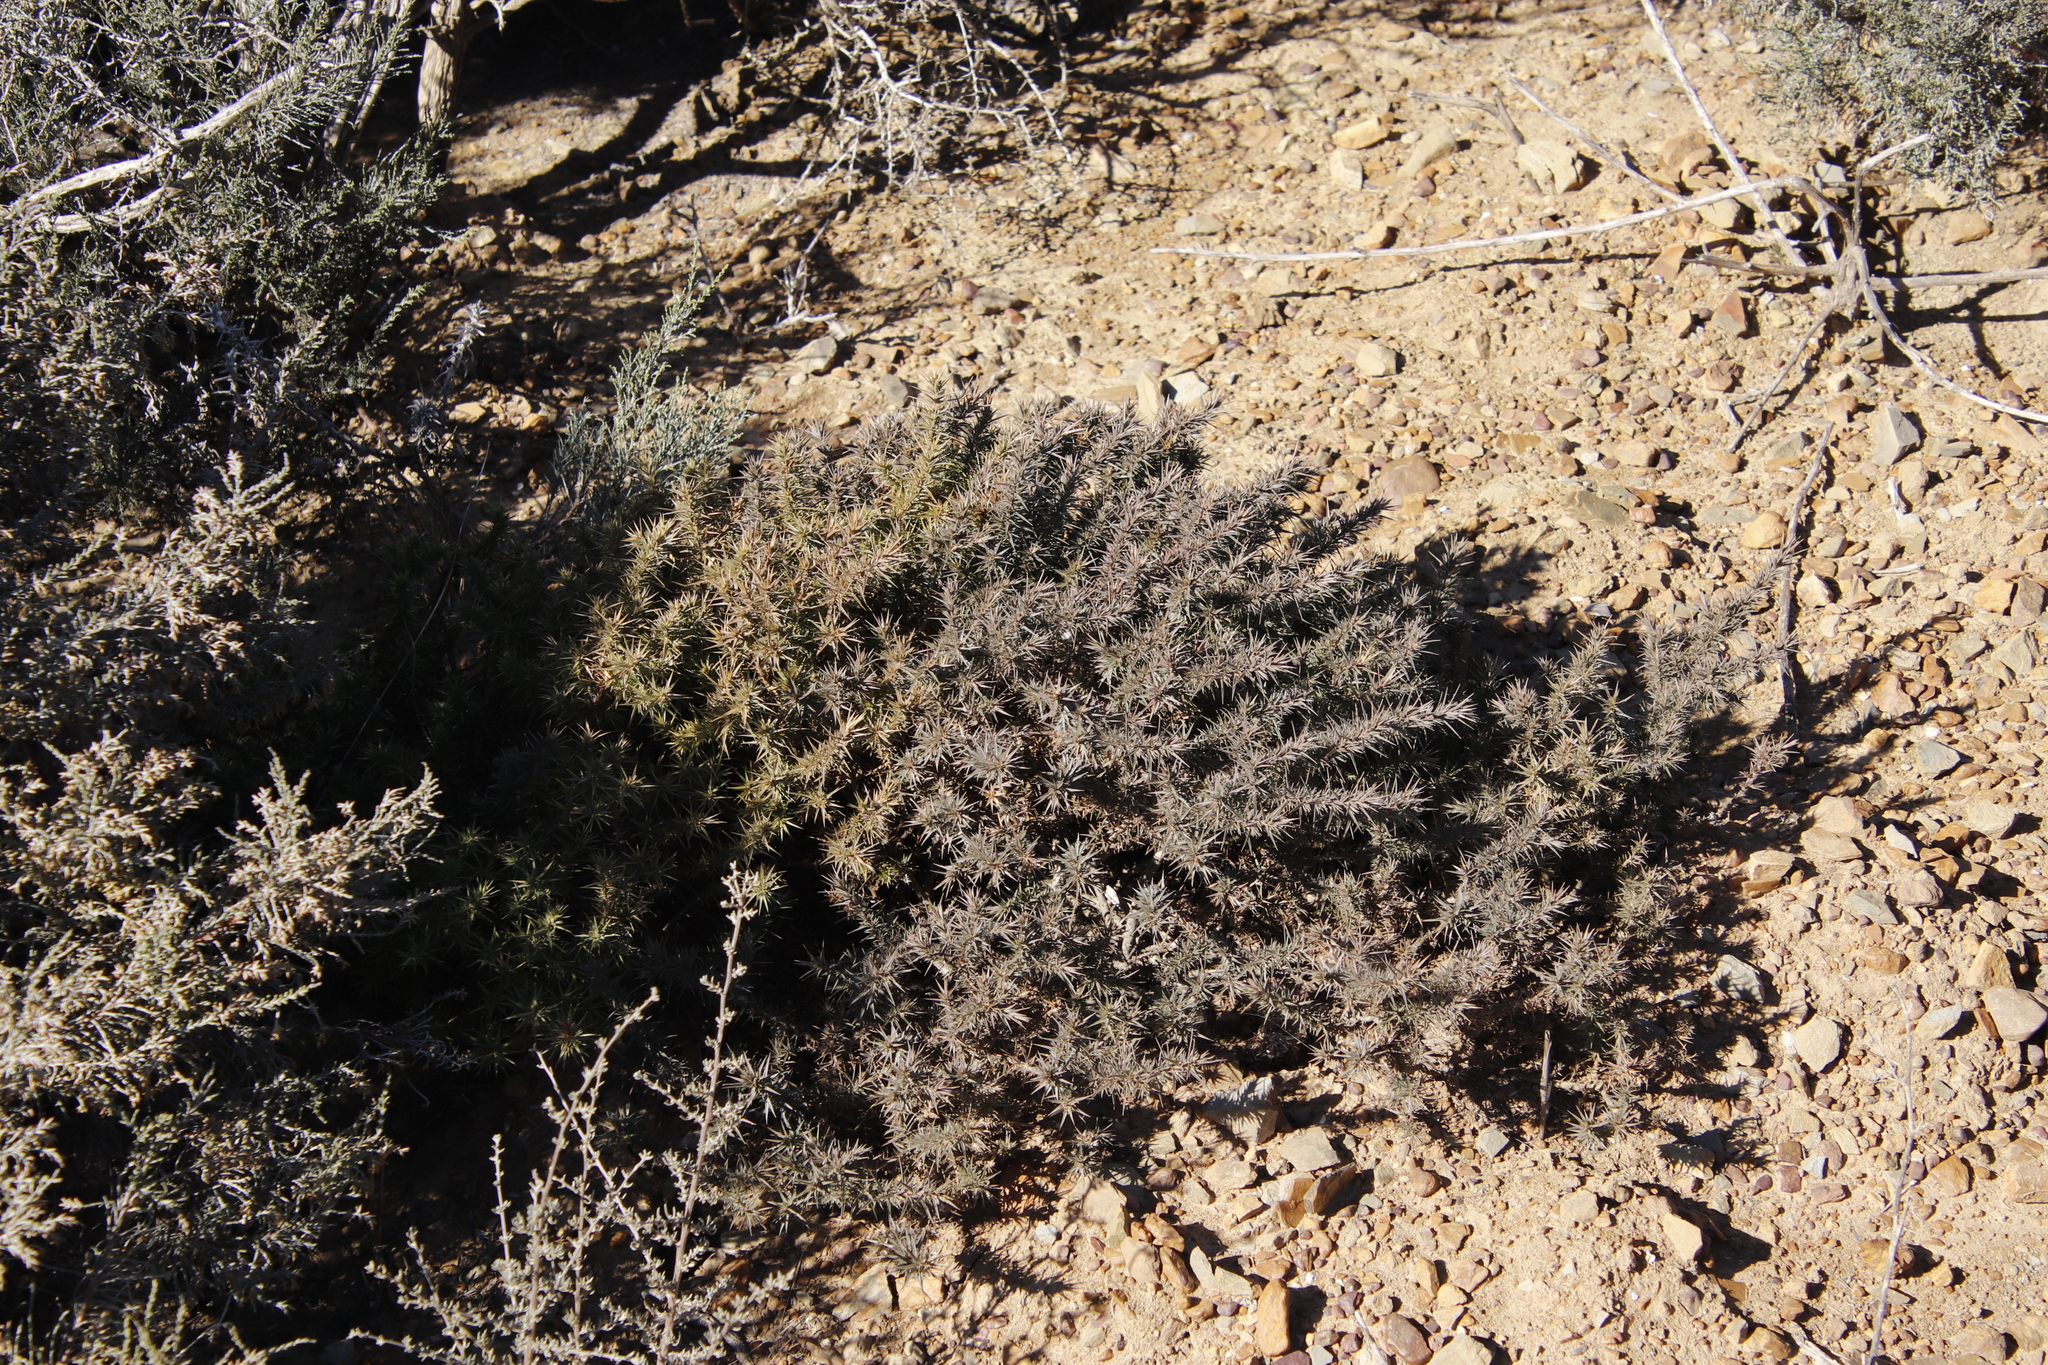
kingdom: Plantae
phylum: Tracheophyta
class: Magnoliopsida
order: Fabales
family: Polygalaceae
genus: Muraltia
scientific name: Muraltia ononidifolia
